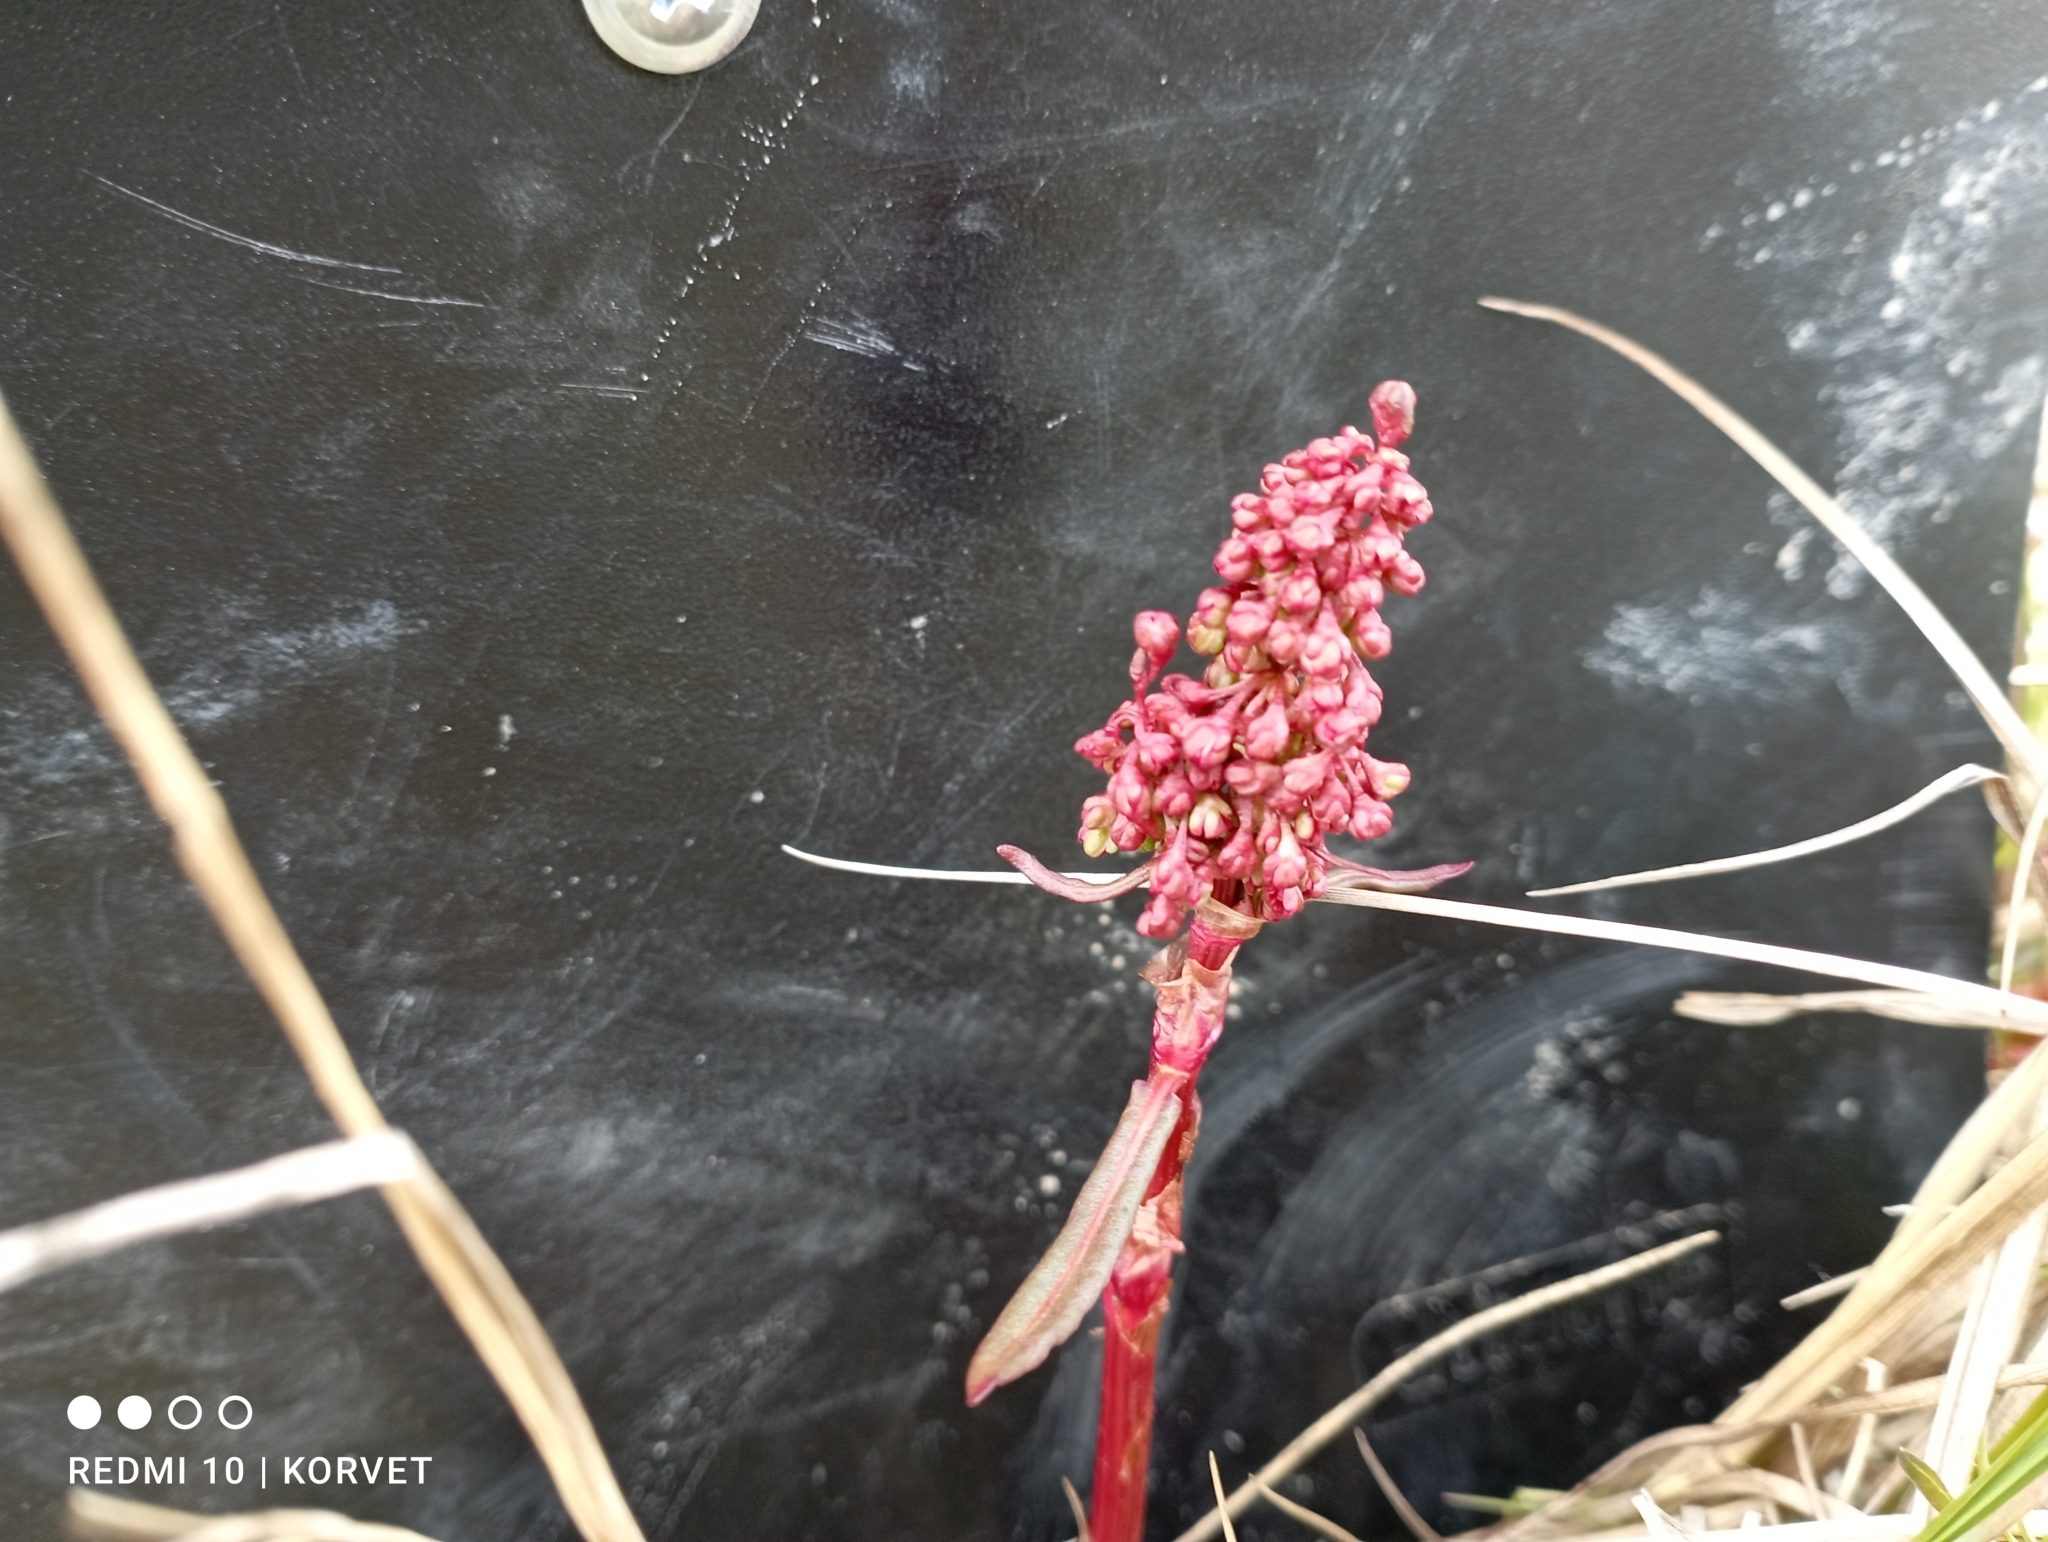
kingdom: Plantae
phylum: Tracheophyta
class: Magnoliopsida
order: Caryophyllales
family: Polygonaceae
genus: Rumex
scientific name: Rumex arcticus
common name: Arctic dock
